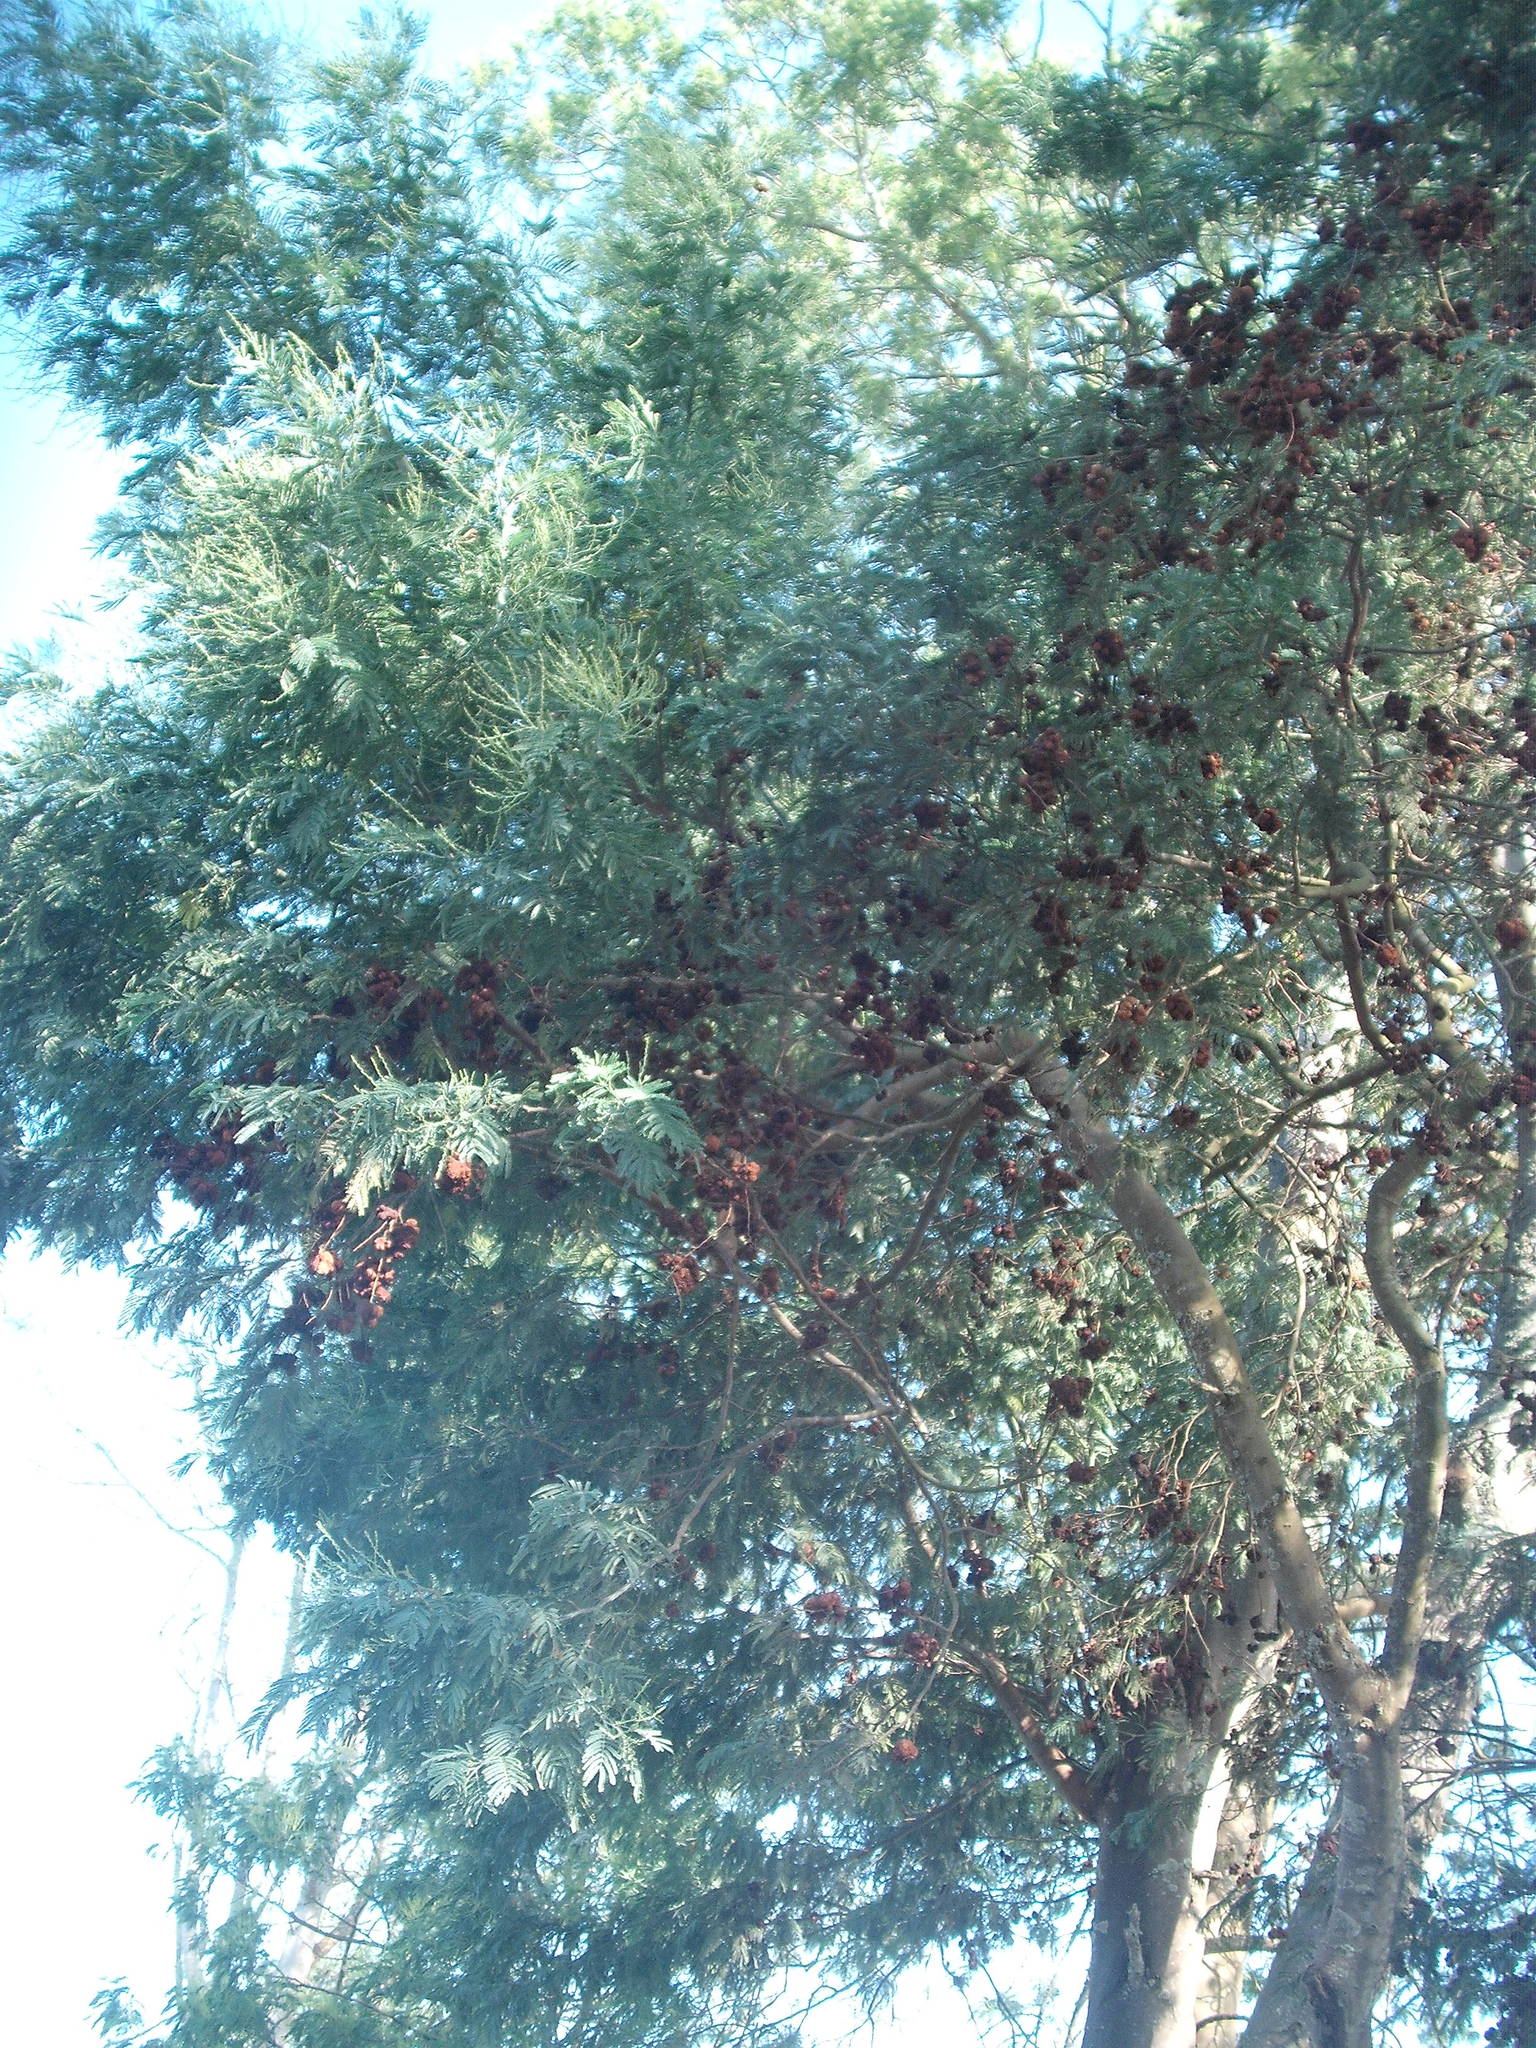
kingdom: Fungi
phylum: Basidiomycota
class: Pucciniomycetes
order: Pucciniales
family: Uromycladiaceae
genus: Uromycladium
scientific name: Uromycladium murphyi
